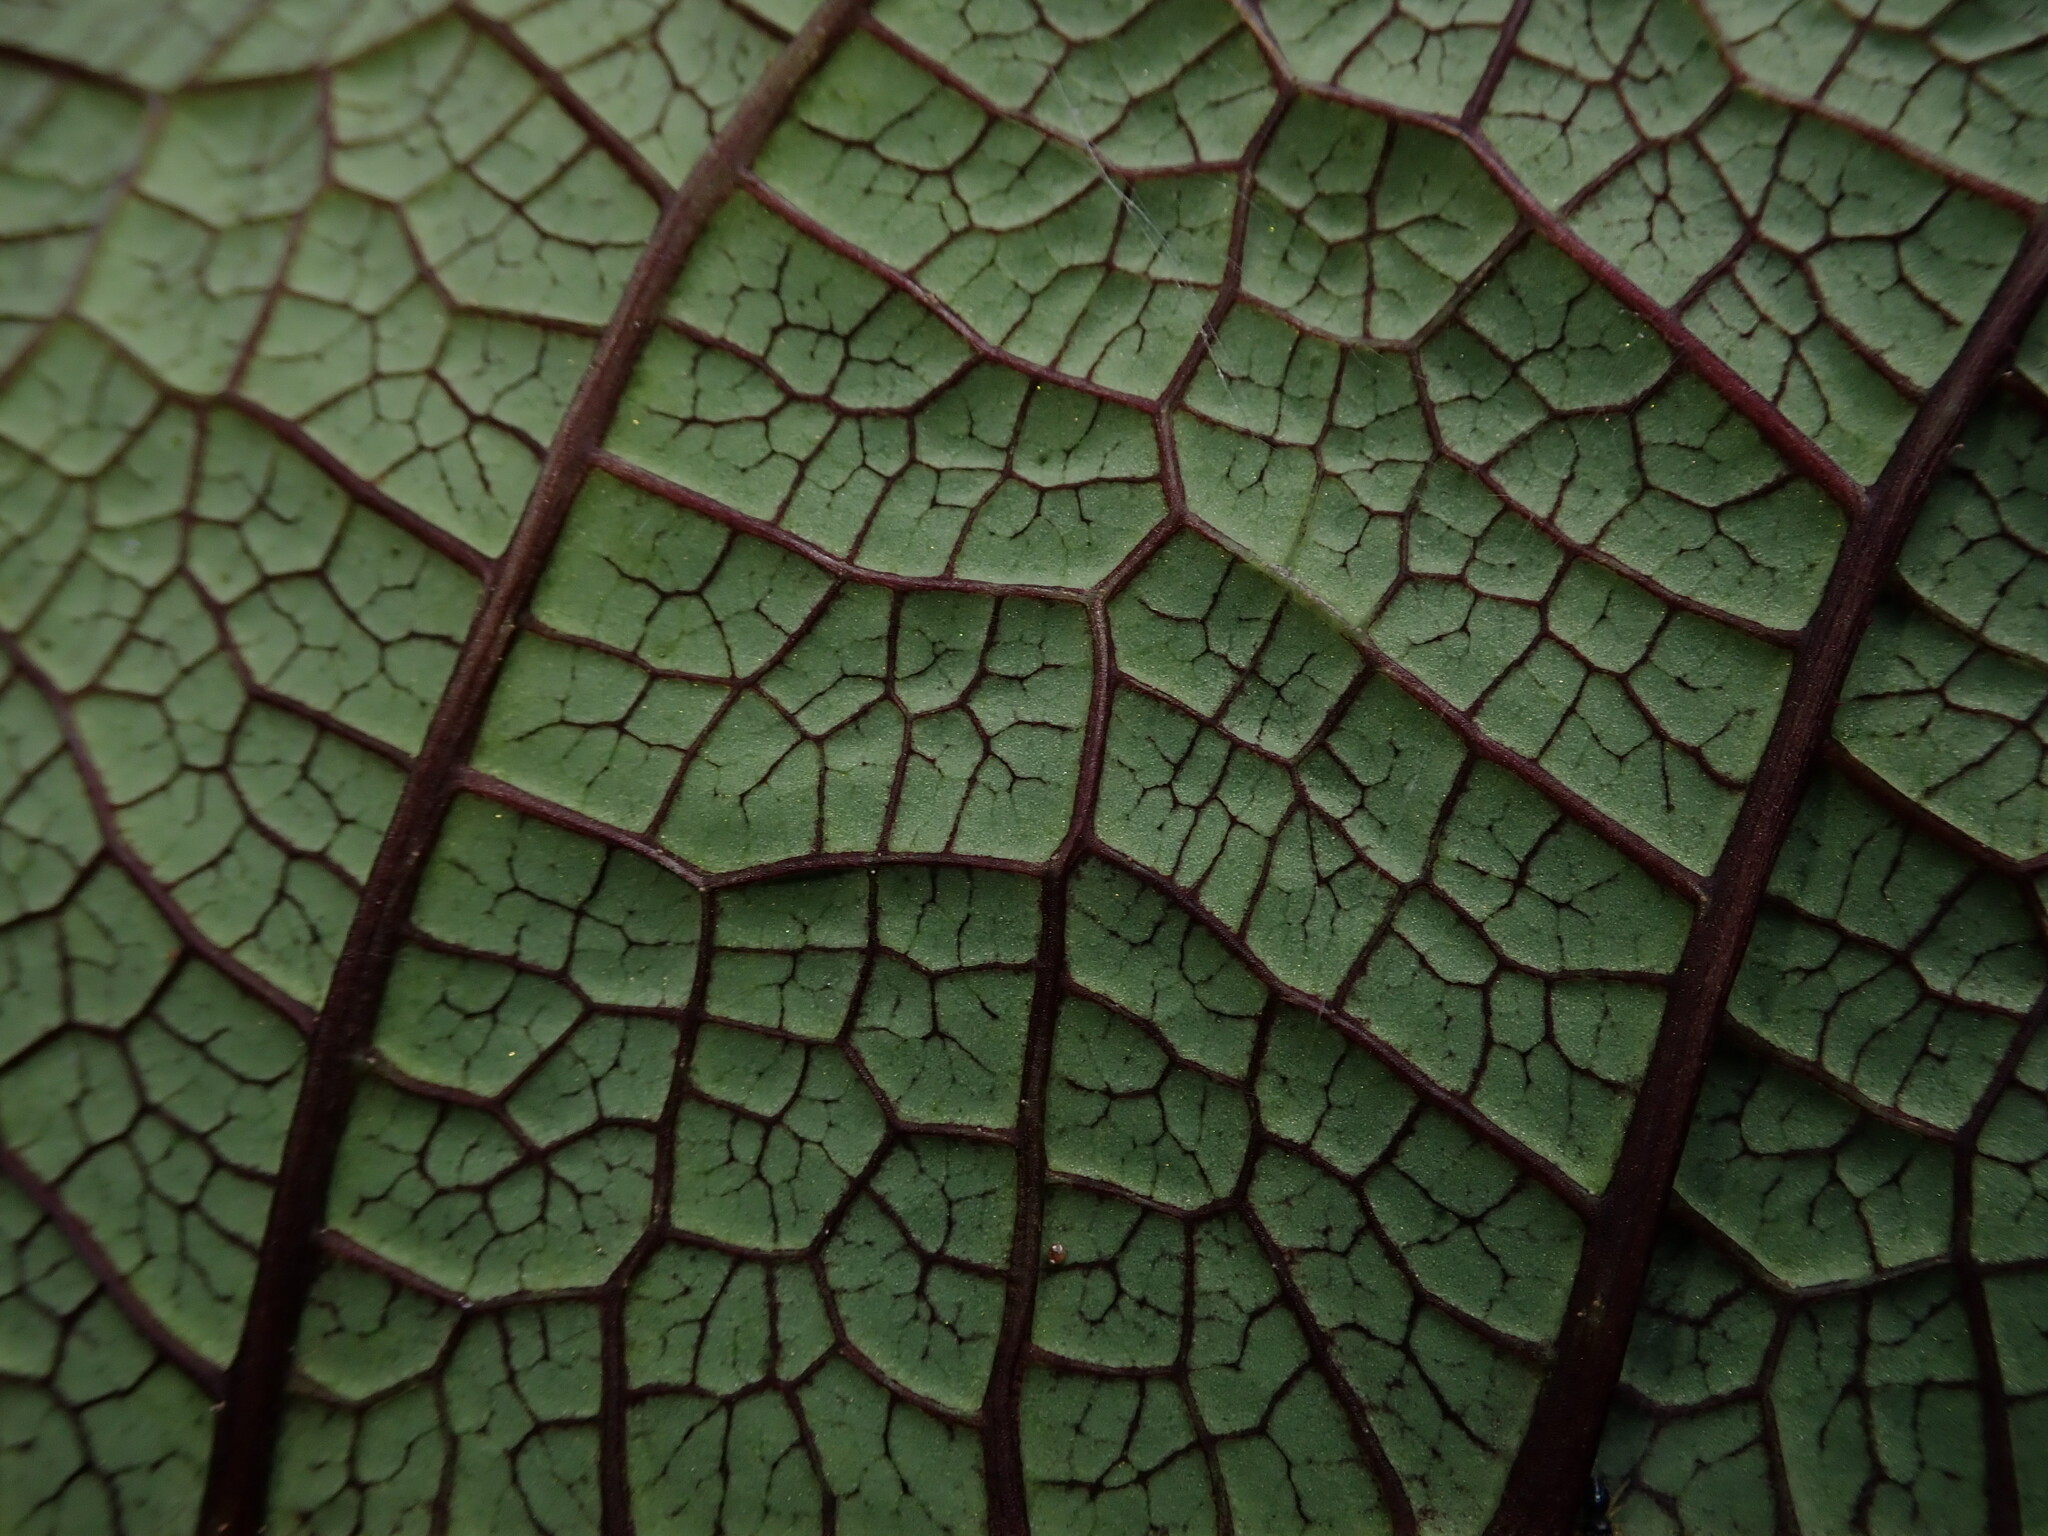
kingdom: Plantae
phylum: Tracheophyta
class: Magnoliopsida
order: Asterales
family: Campanulaceae
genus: Burmeistera
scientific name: Burmeistera multiflora
